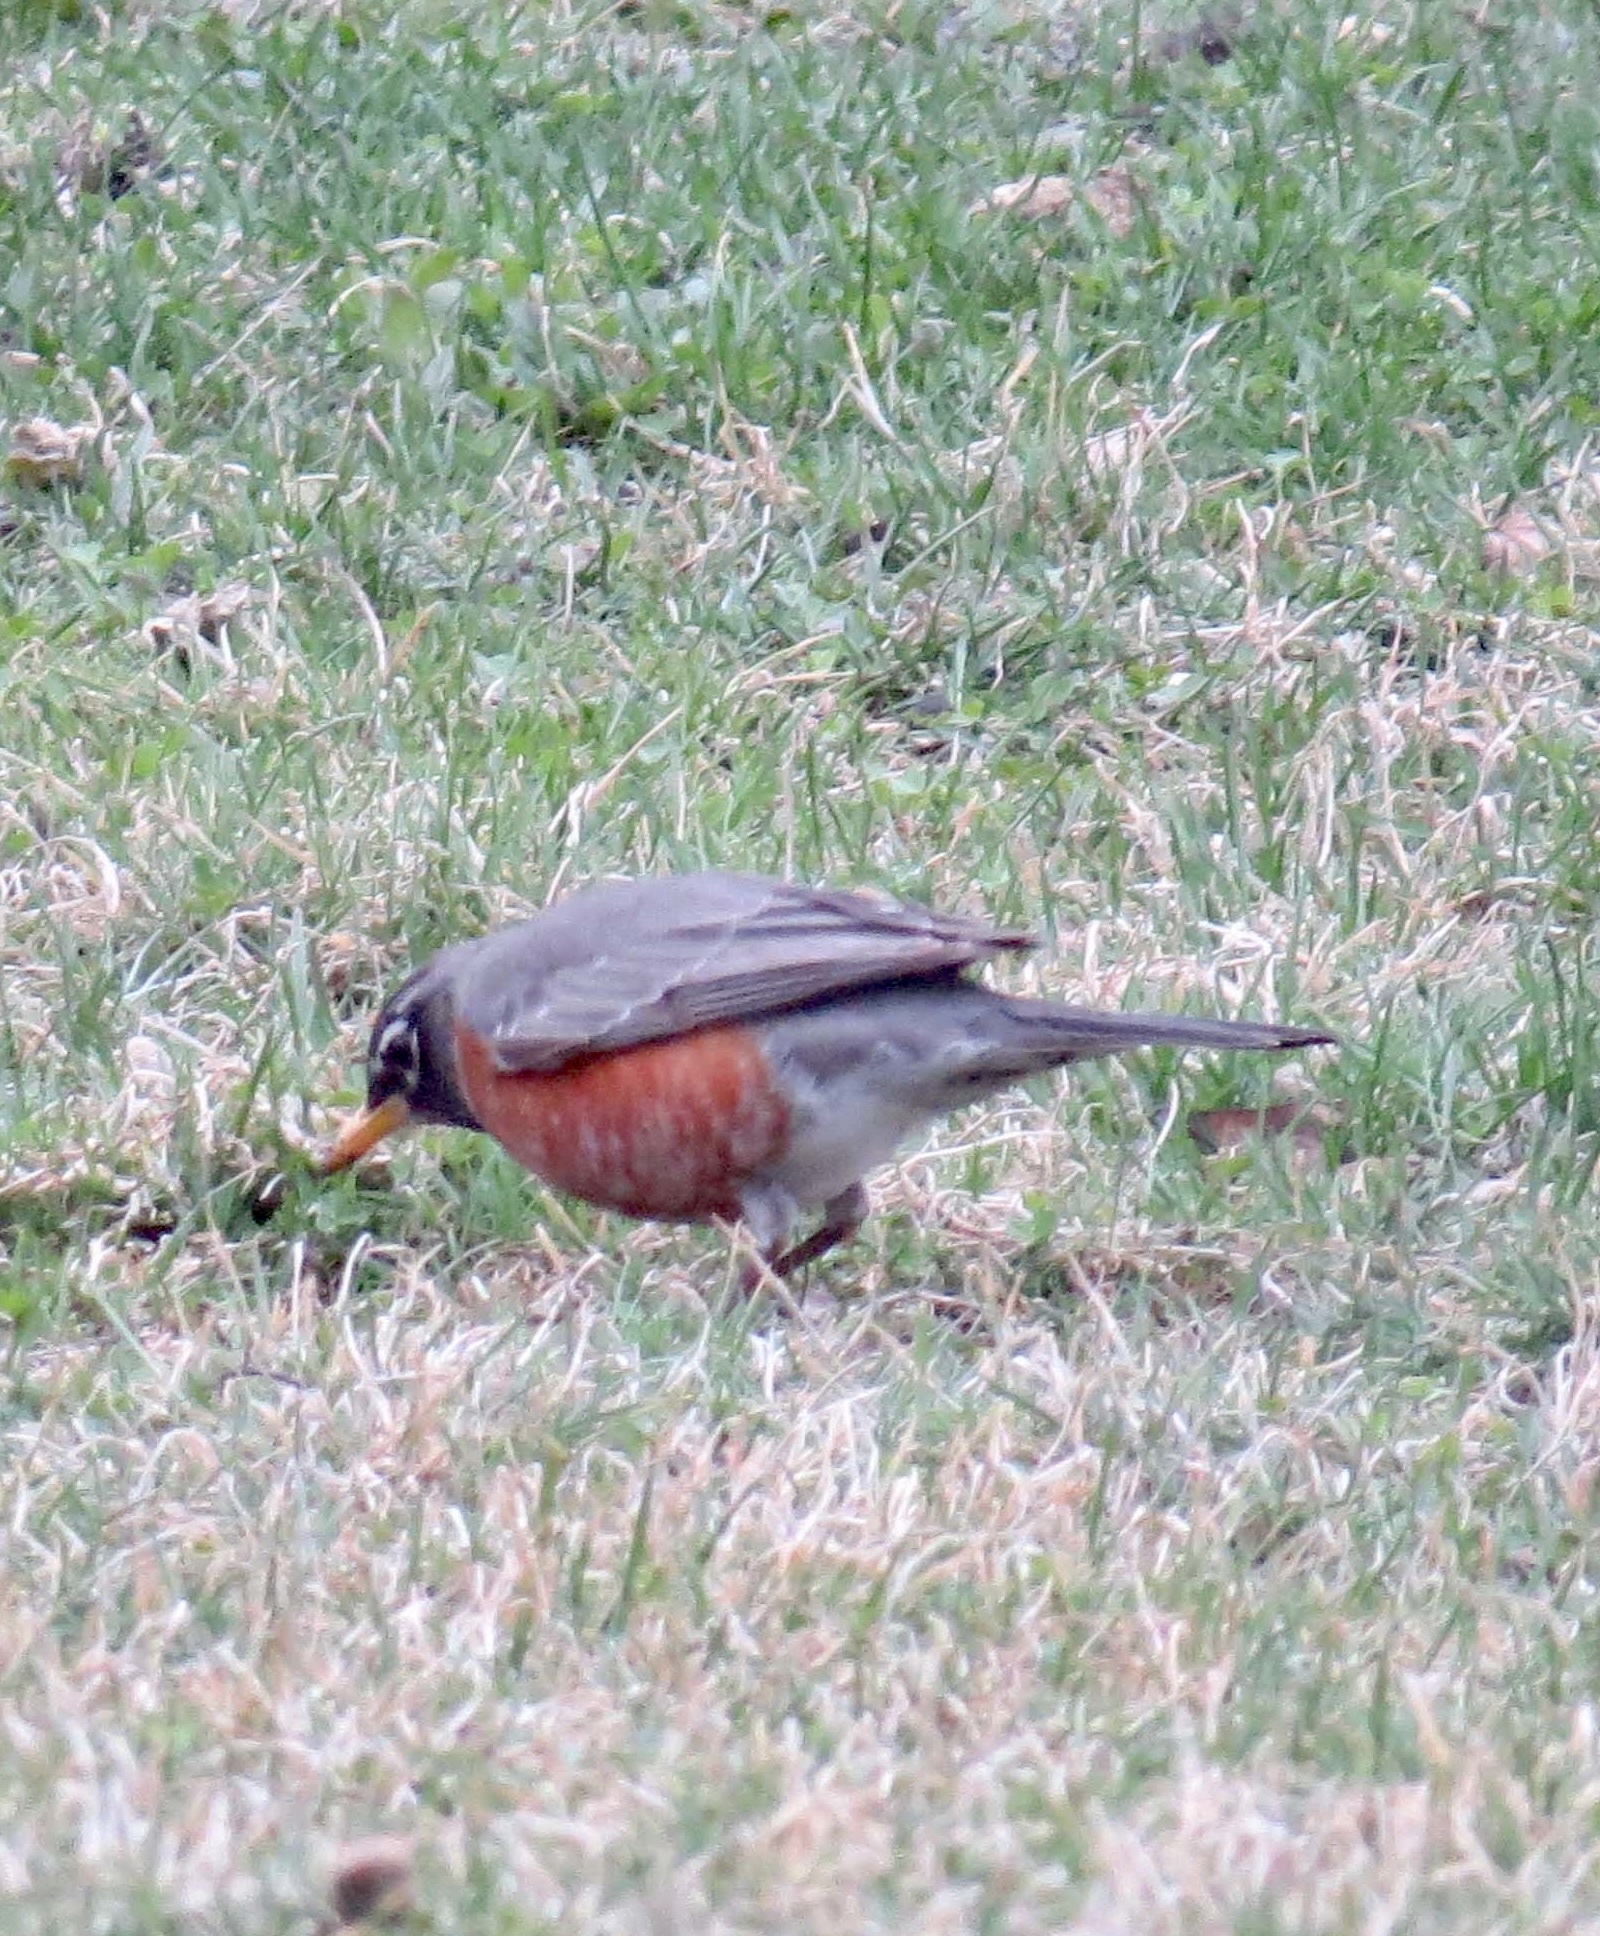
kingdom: Animalia
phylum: Chordata
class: Aves
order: Passeriformes
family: Turdidae
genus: Turdus
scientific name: Turdus migratorius
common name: American robin
